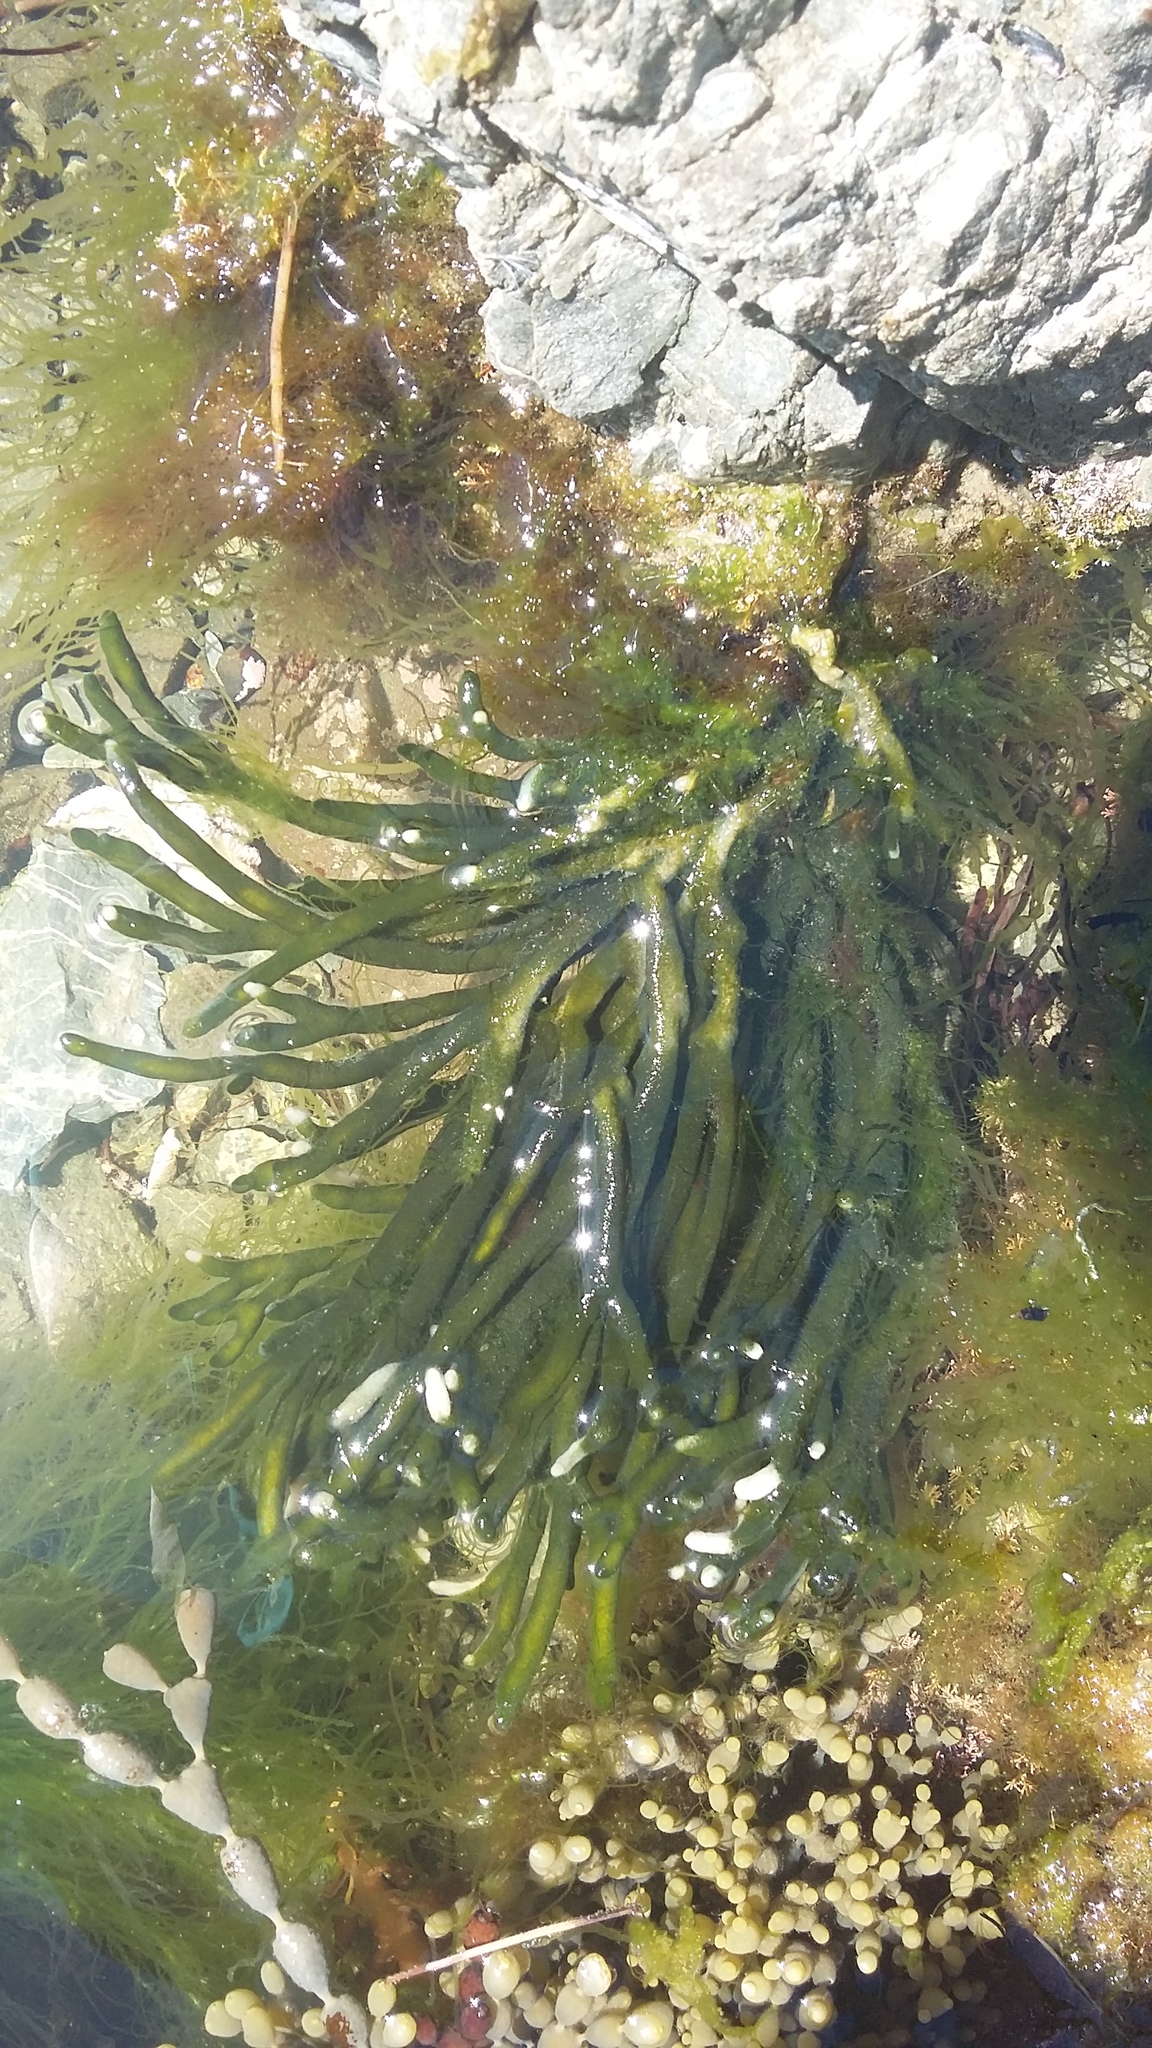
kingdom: Plantae
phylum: Chlorophyta
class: Ulvophyceae
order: Bryopsidales
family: Codiaceae
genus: Codium
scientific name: Codium fragile
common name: Dead man's fingers
